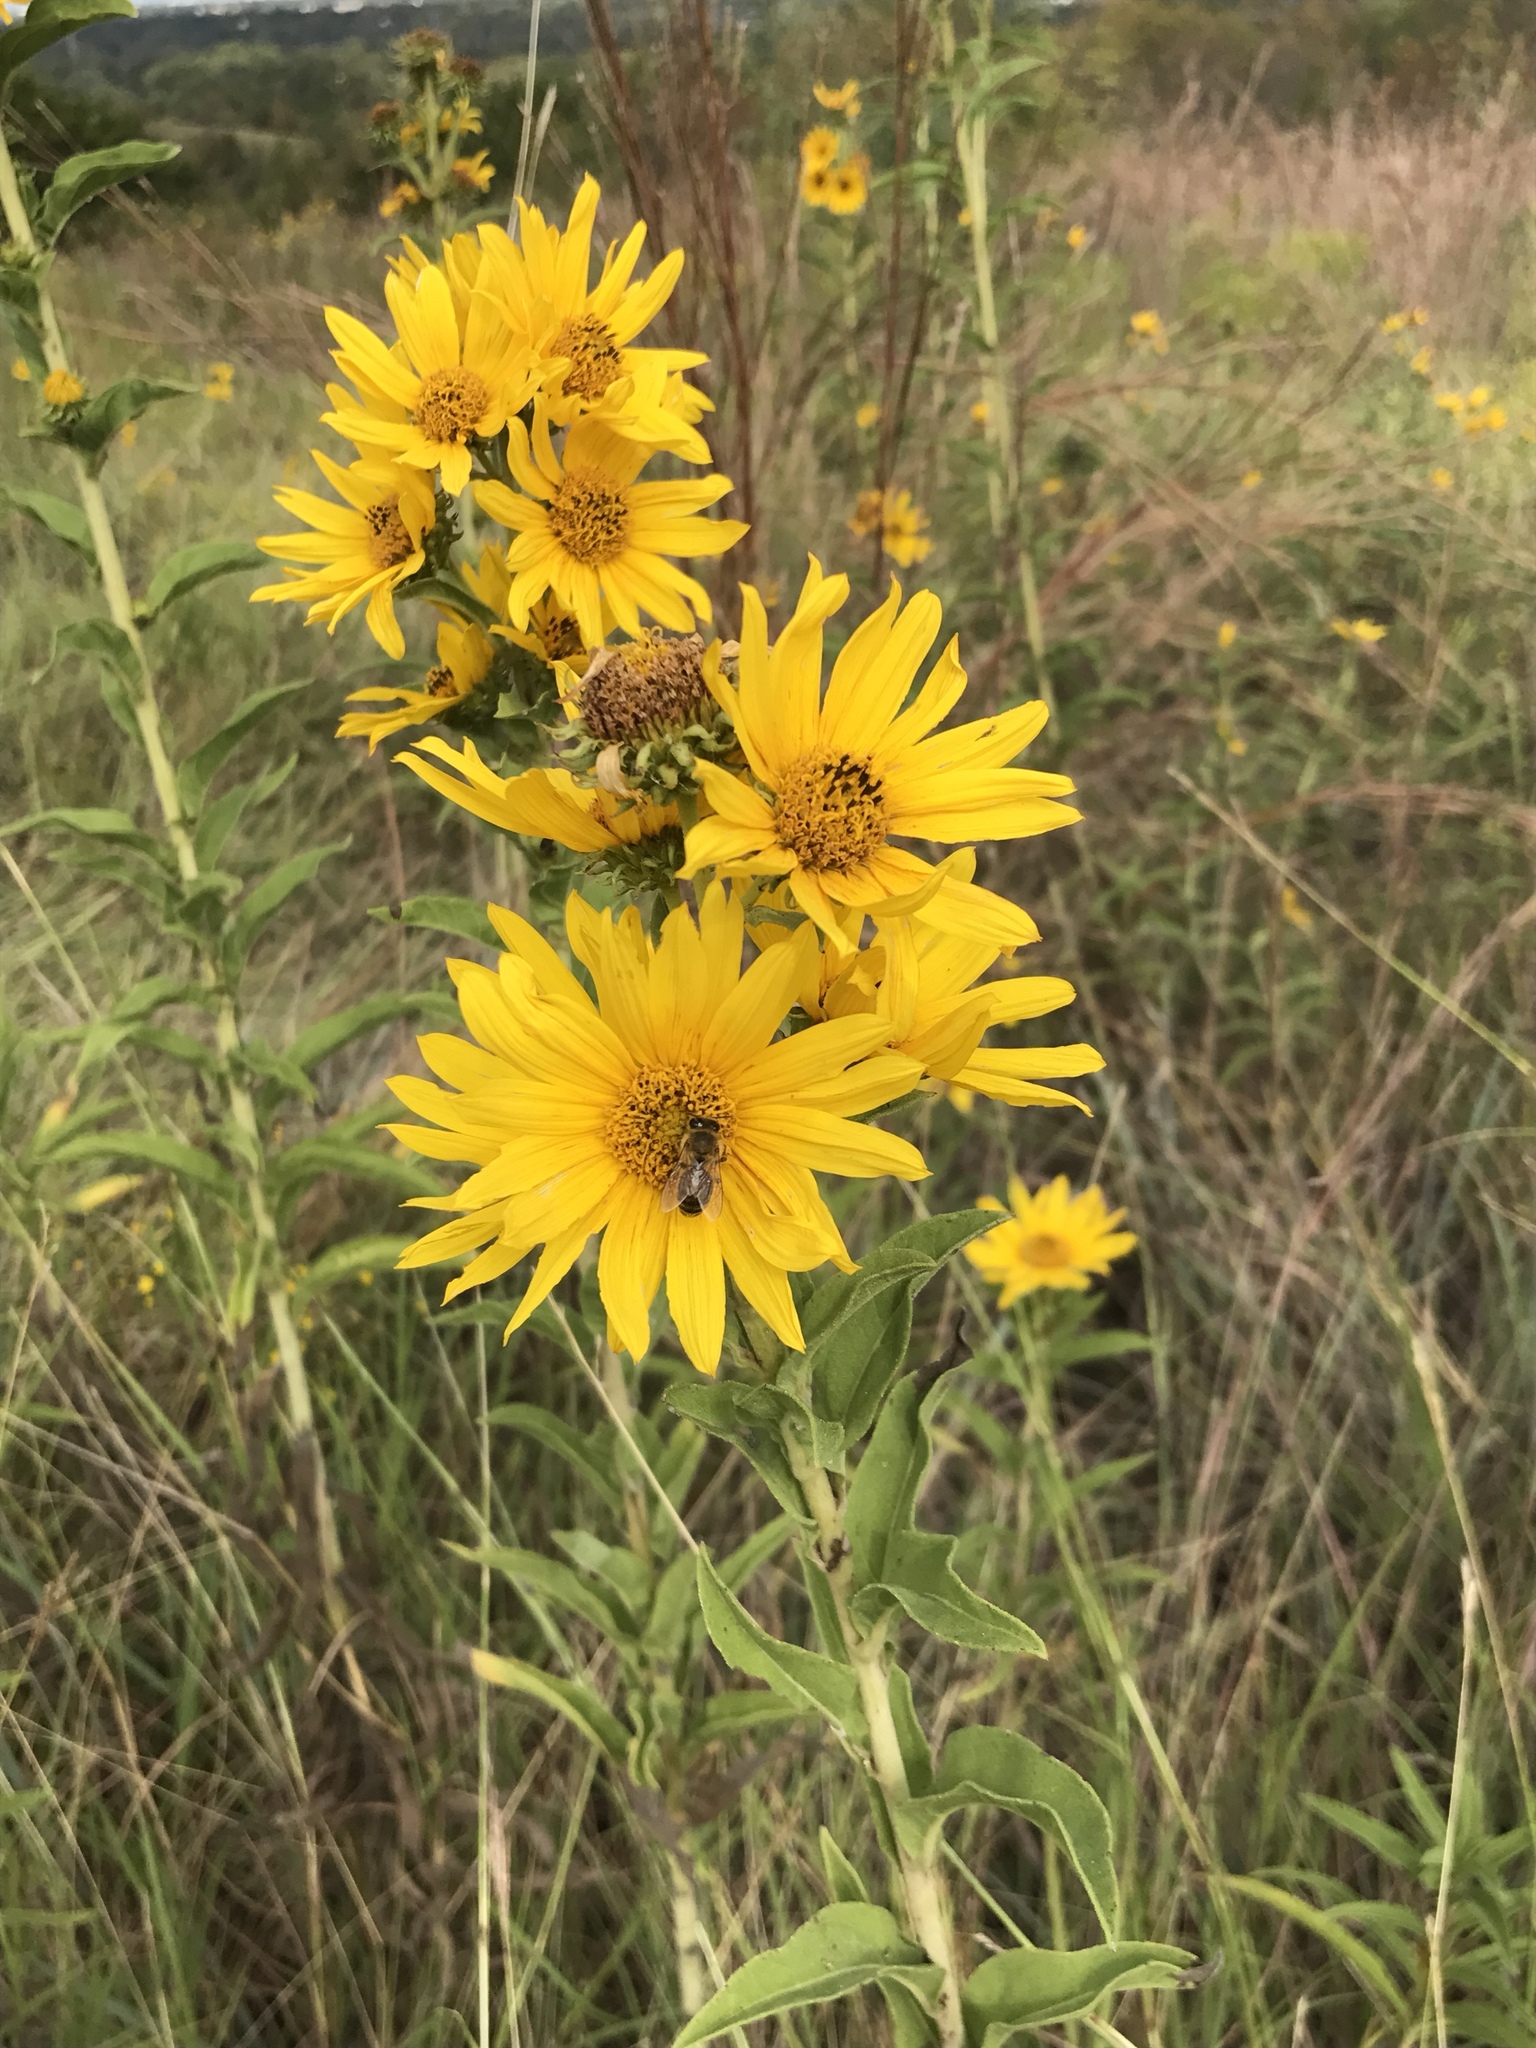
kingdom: Plantae
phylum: Tracheophyta
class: Magnoliopsida
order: Asterales
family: Asteraceae
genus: Helianthus
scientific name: Helianthus maximiliani
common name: Maximilian's sunflower
